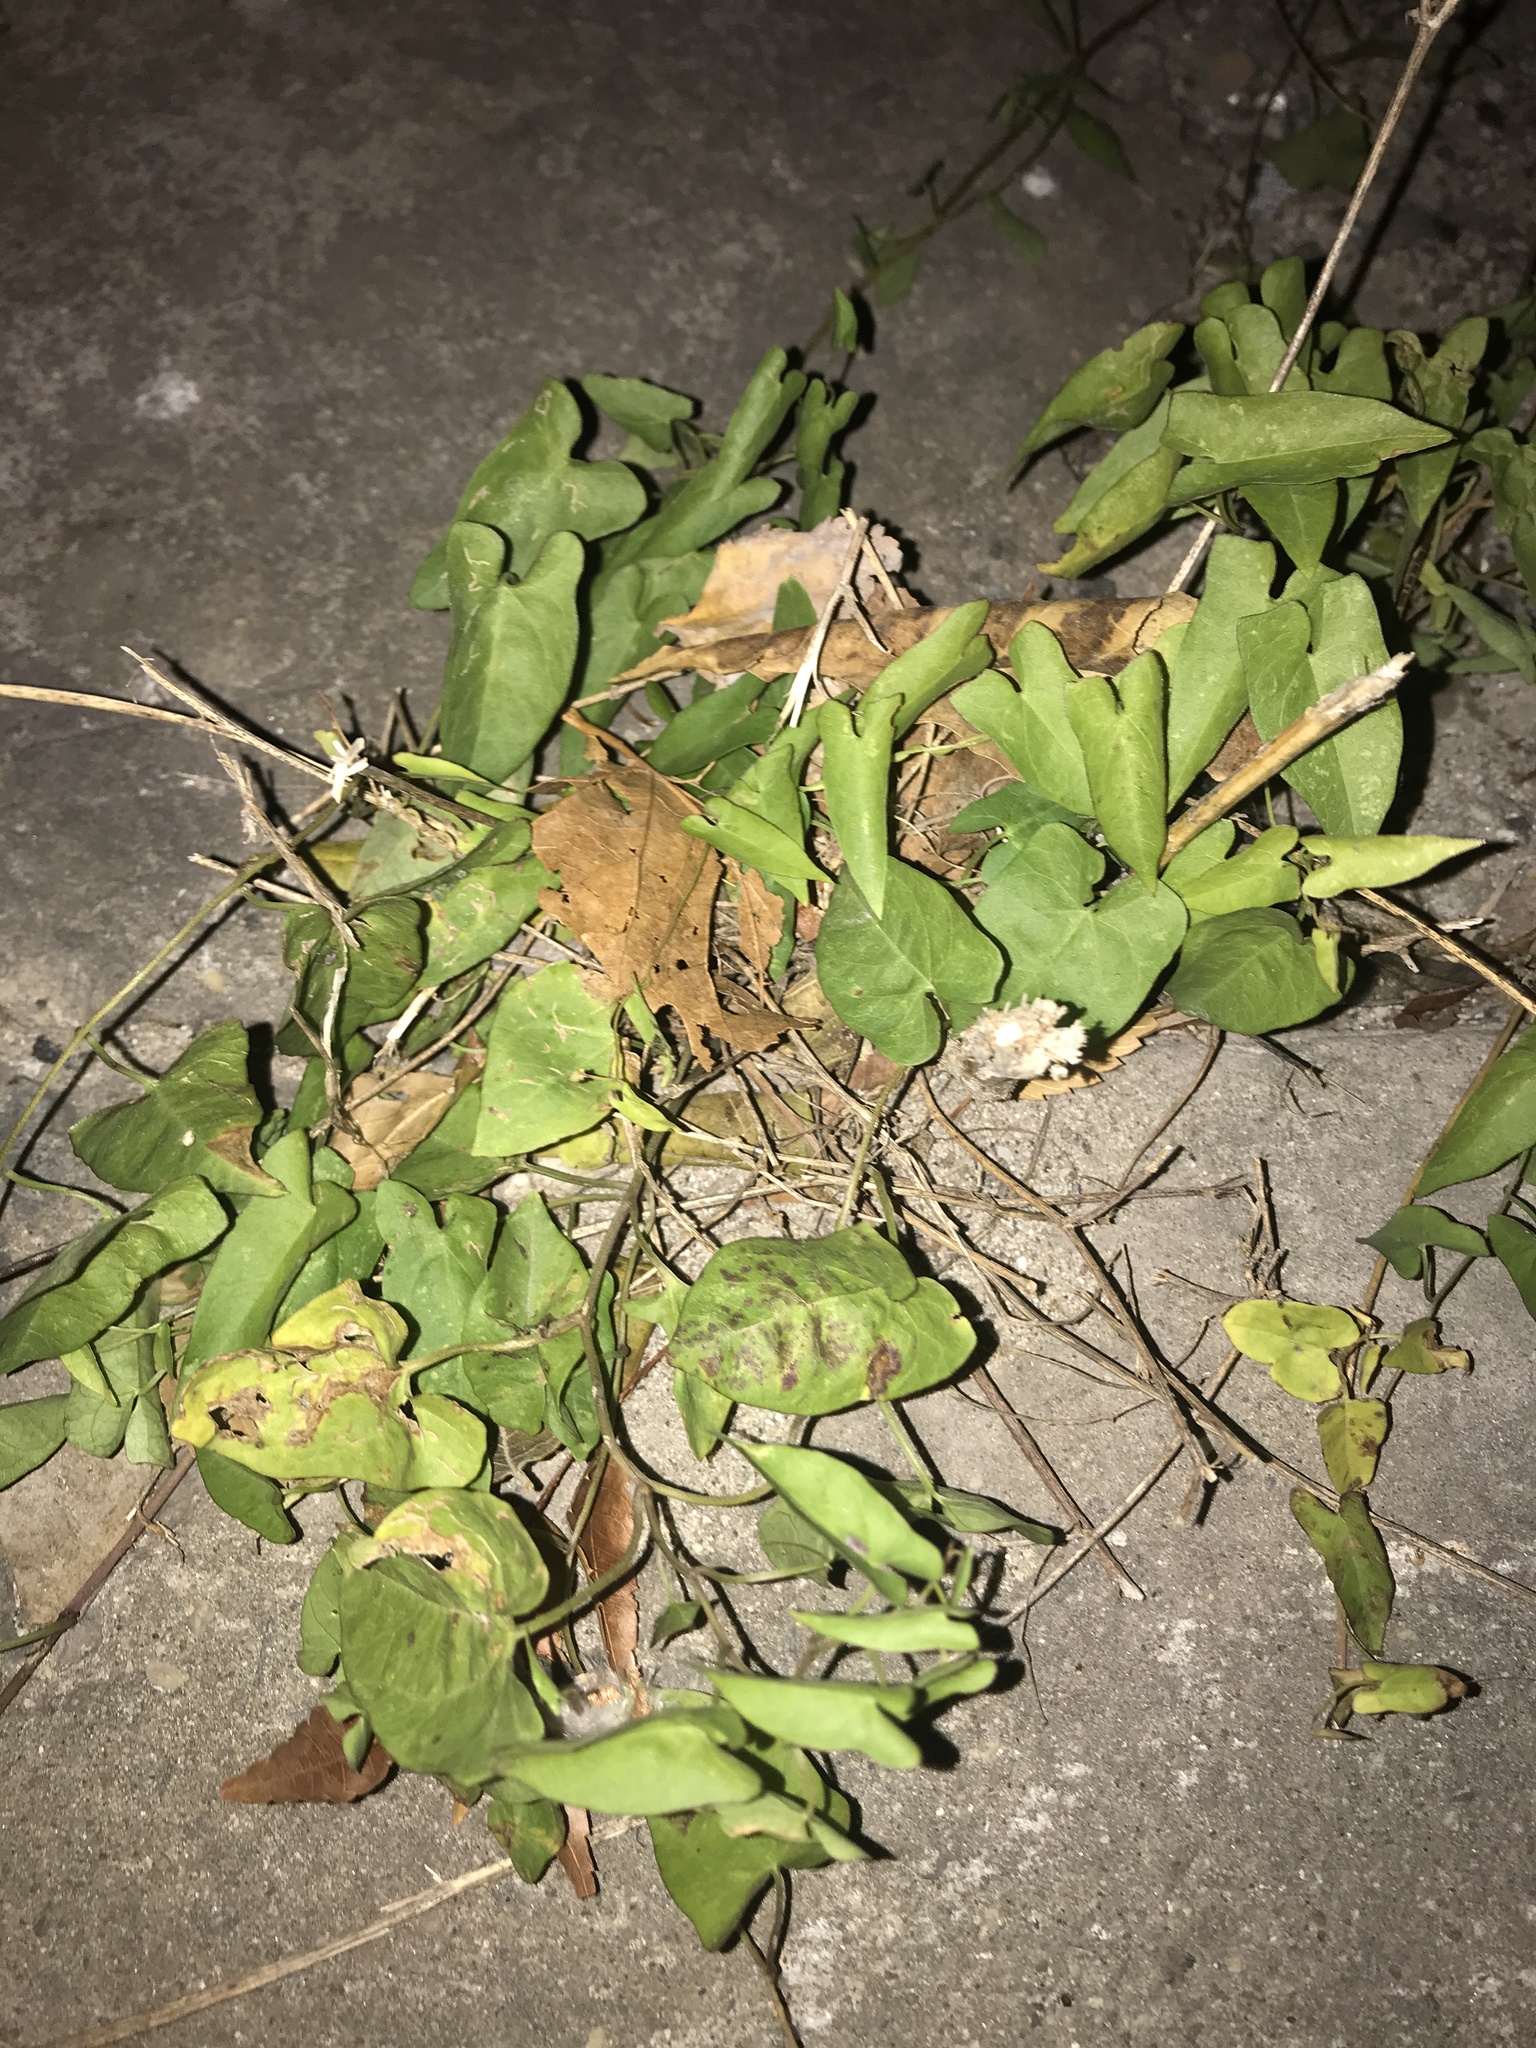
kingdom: Plantae
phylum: Tracheophyta
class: Magnoliopsida
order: Solanales
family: Convolvulaceae
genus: Calystegia
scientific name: Calystegia sepium
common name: Hedge bindweed
